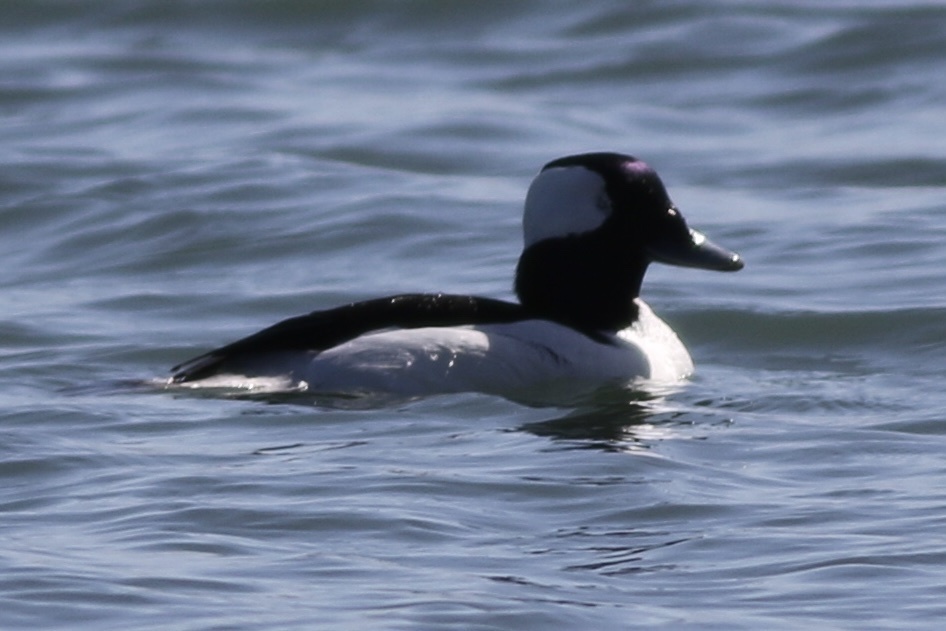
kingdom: Animalia
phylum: Chordata
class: Aves
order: Anseriformes
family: Anatidae
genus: Bucephala
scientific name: Bucephala albeola
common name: Bufflehead
